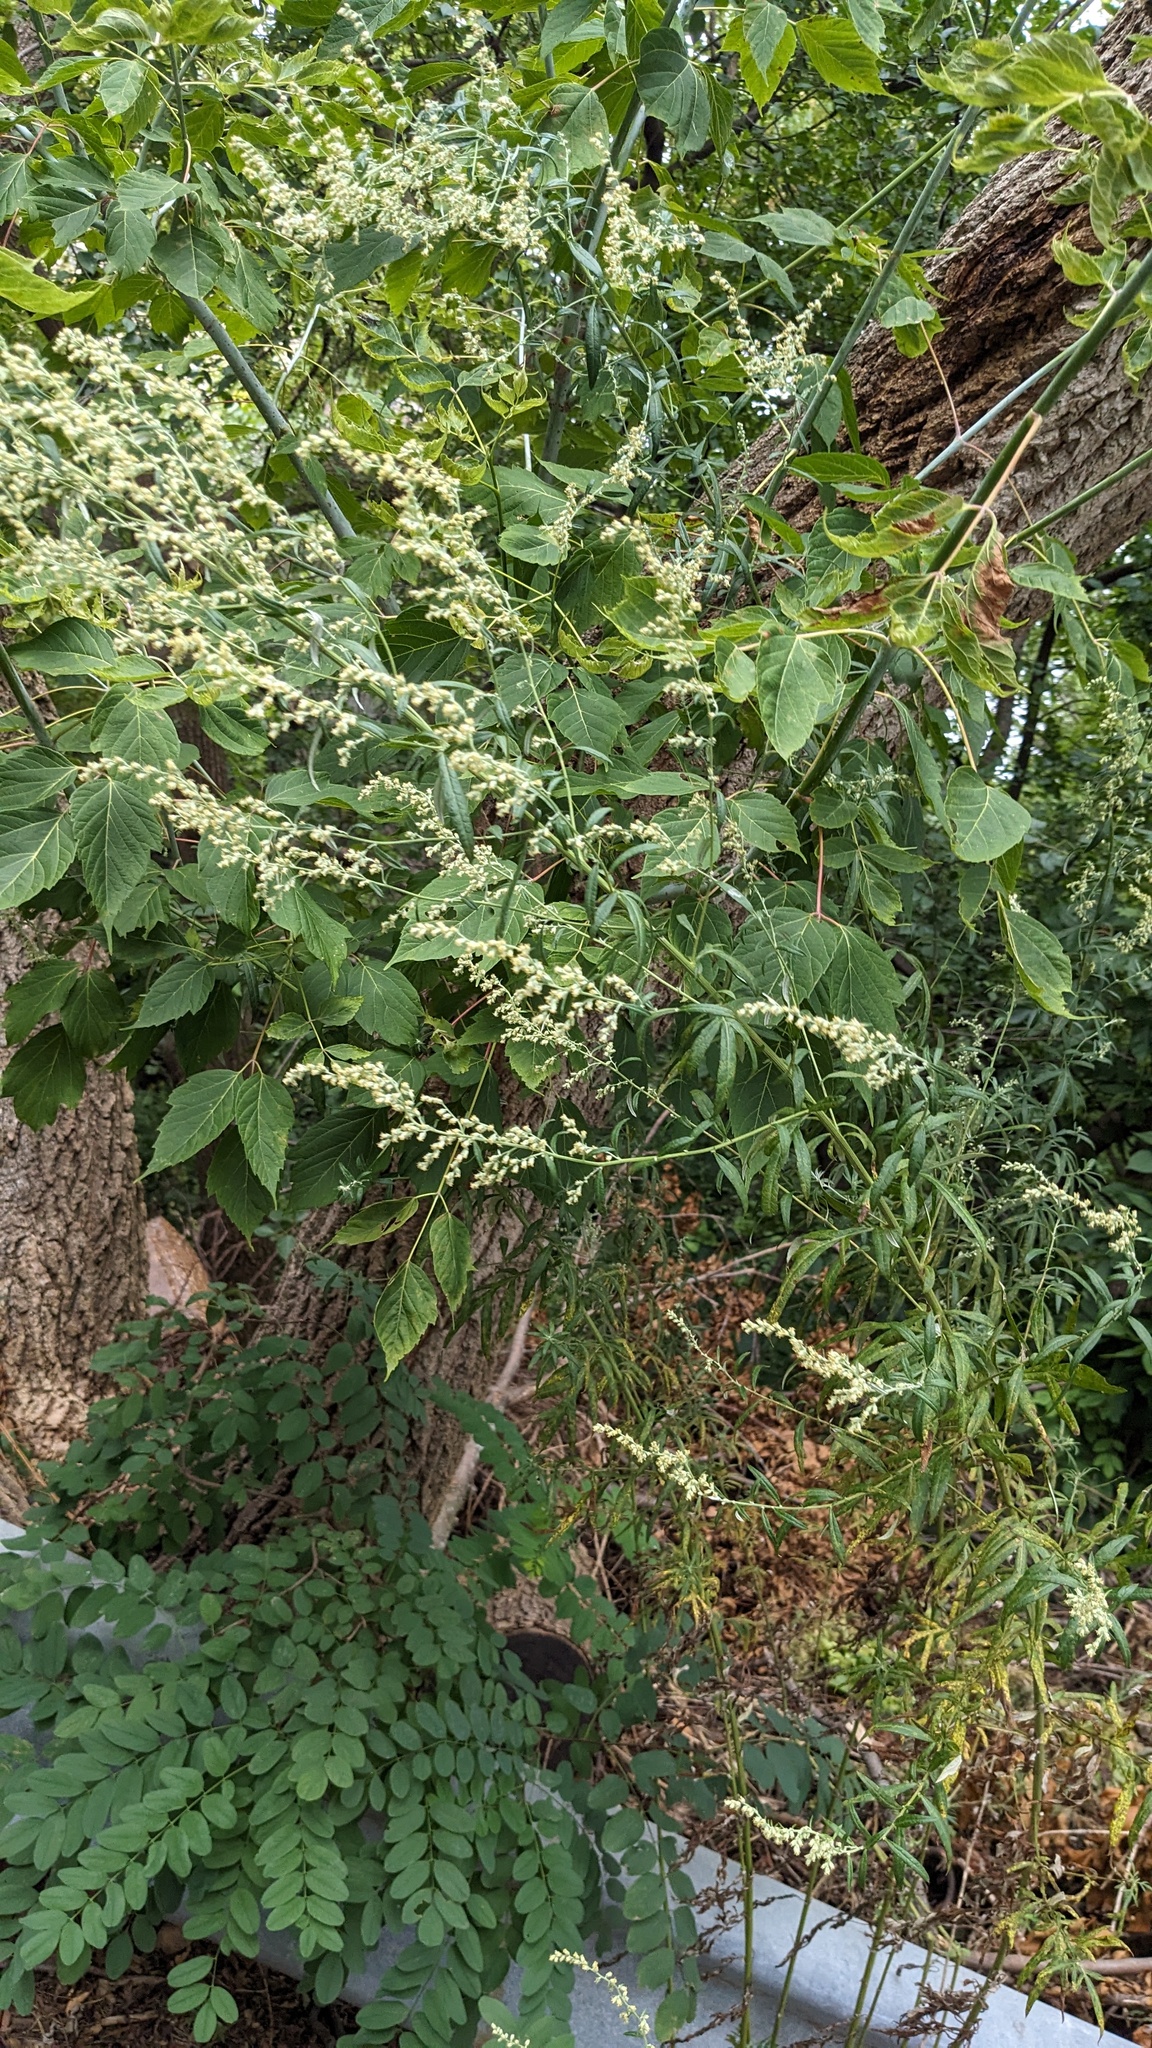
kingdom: Plantae
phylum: Tracheophyta
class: Magnoliopsida
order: Fabales
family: Fabaceae
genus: Robinia
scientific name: Robinia pseudoacacia
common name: Black locust
